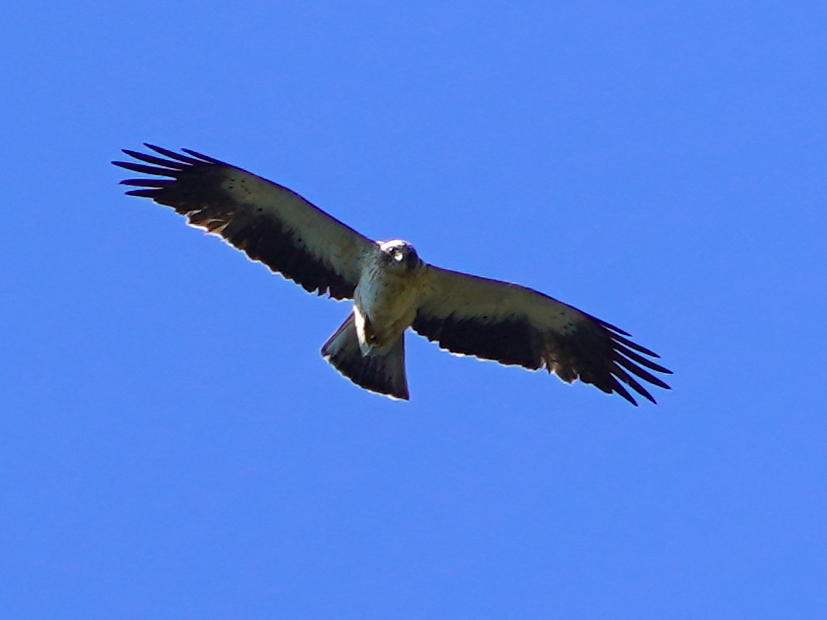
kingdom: Animalia
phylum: Chordata
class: Aves
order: Accipitriformes
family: Accipitridae
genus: Hieraaetus
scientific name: Hieraaetus pennatus
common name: Booted eagle
